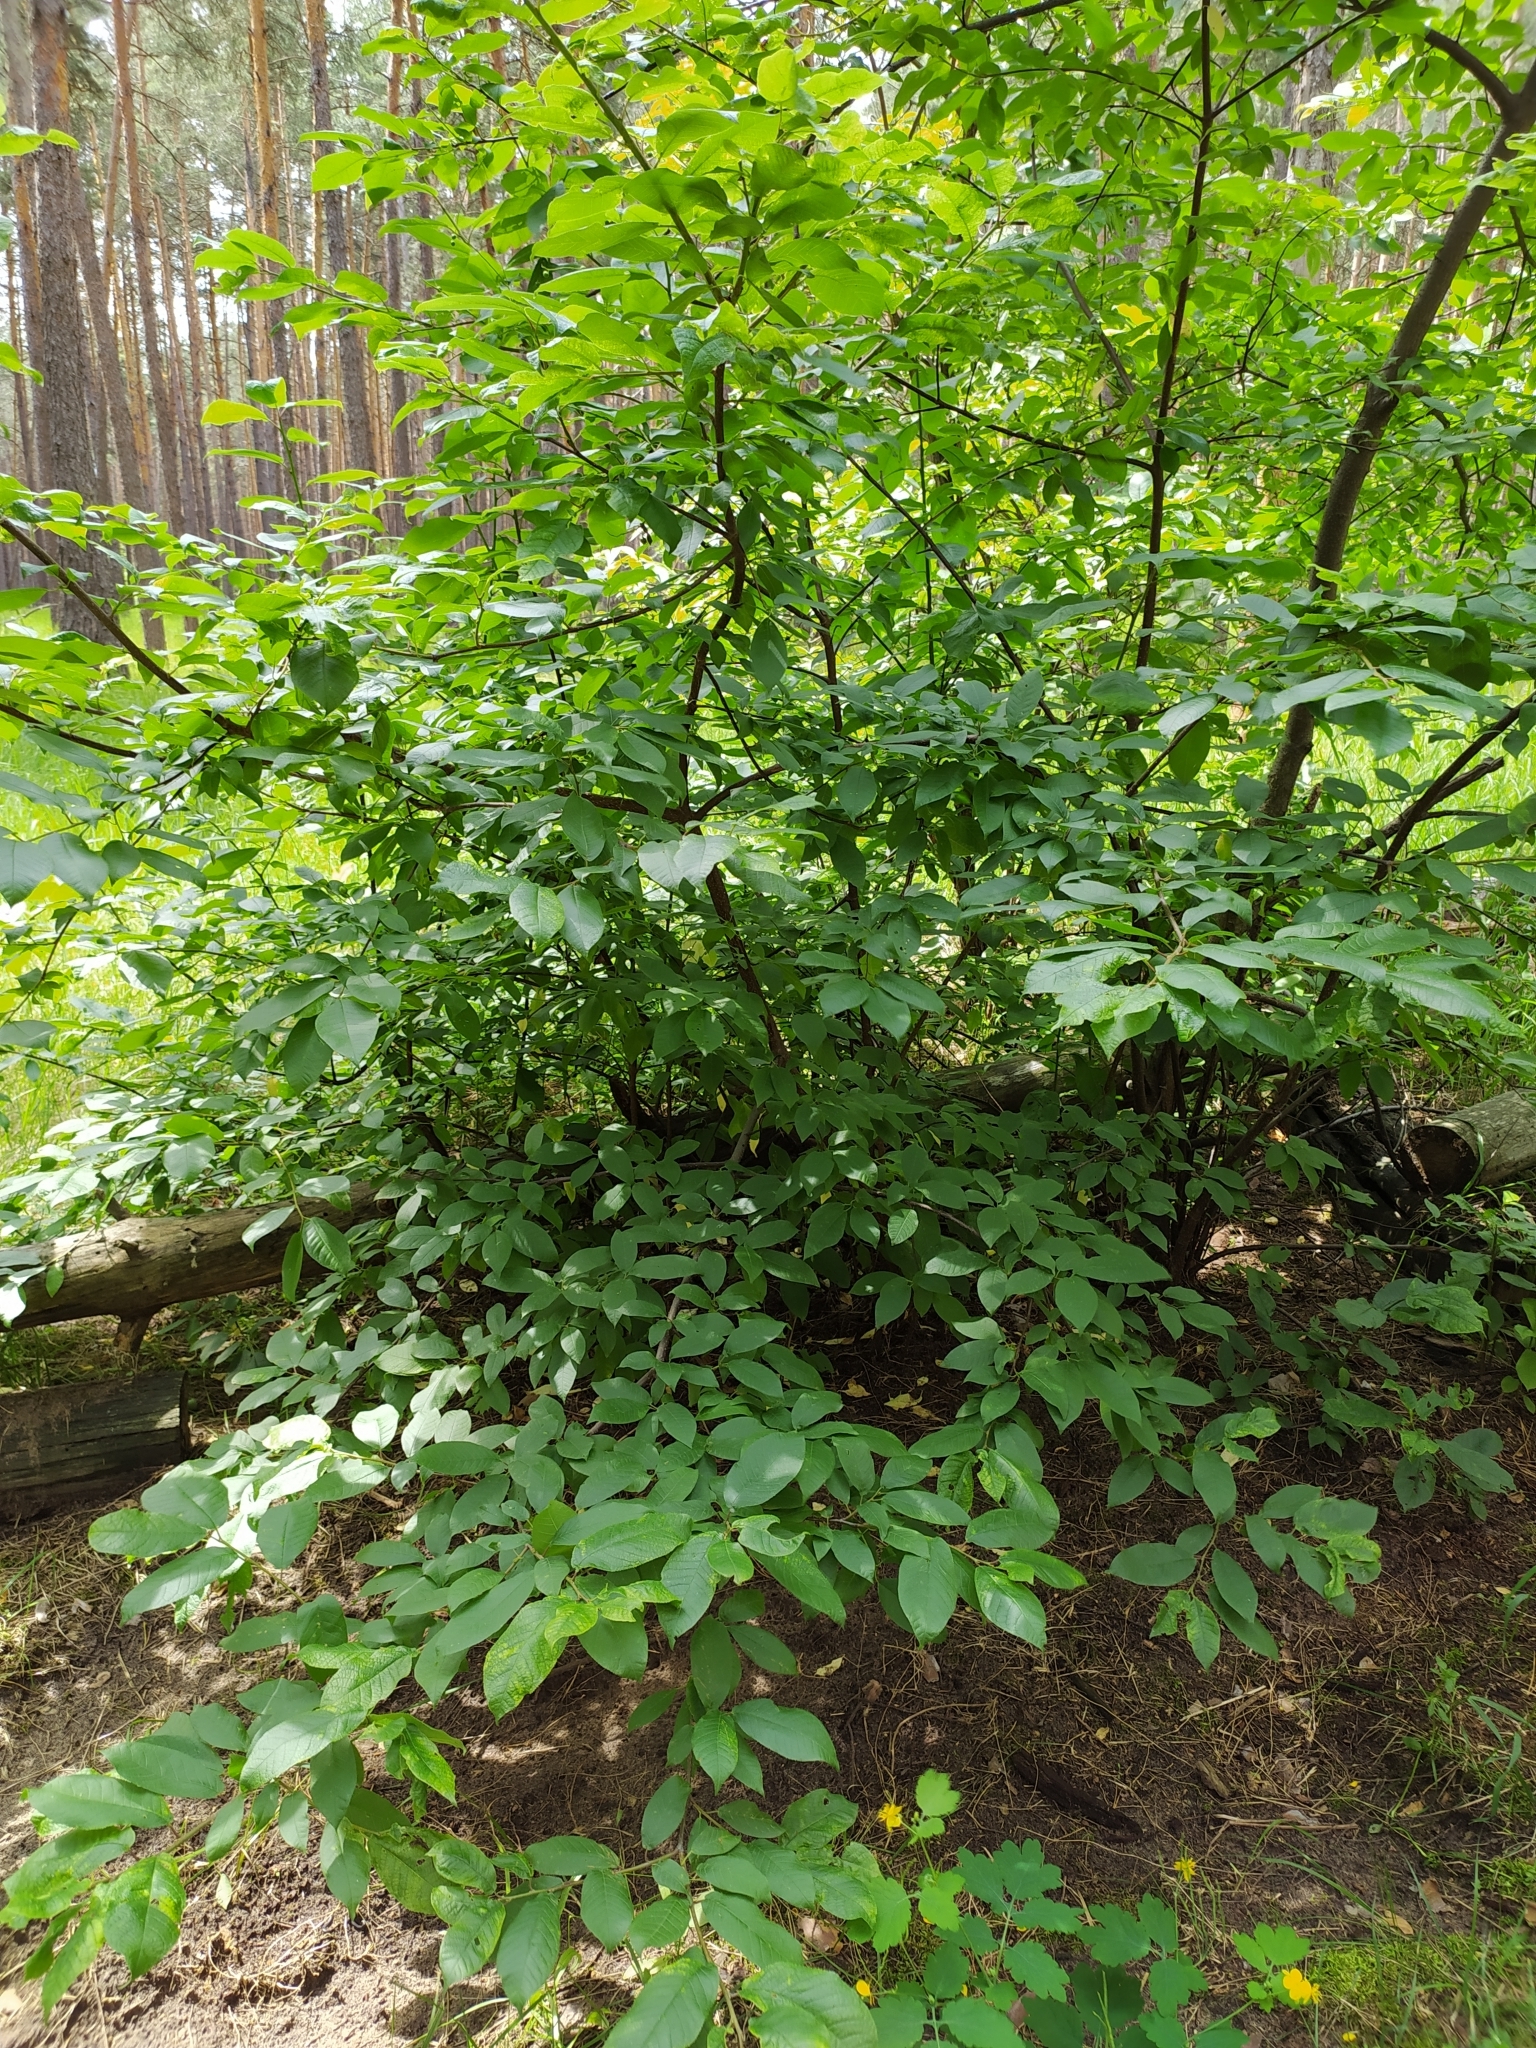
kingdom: Plantae
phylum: Tracheophyta
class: Magnoliopsida
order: Rosales
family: Rosaceae
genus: Prunus
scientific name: Prunus padus
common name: Bird cherry
